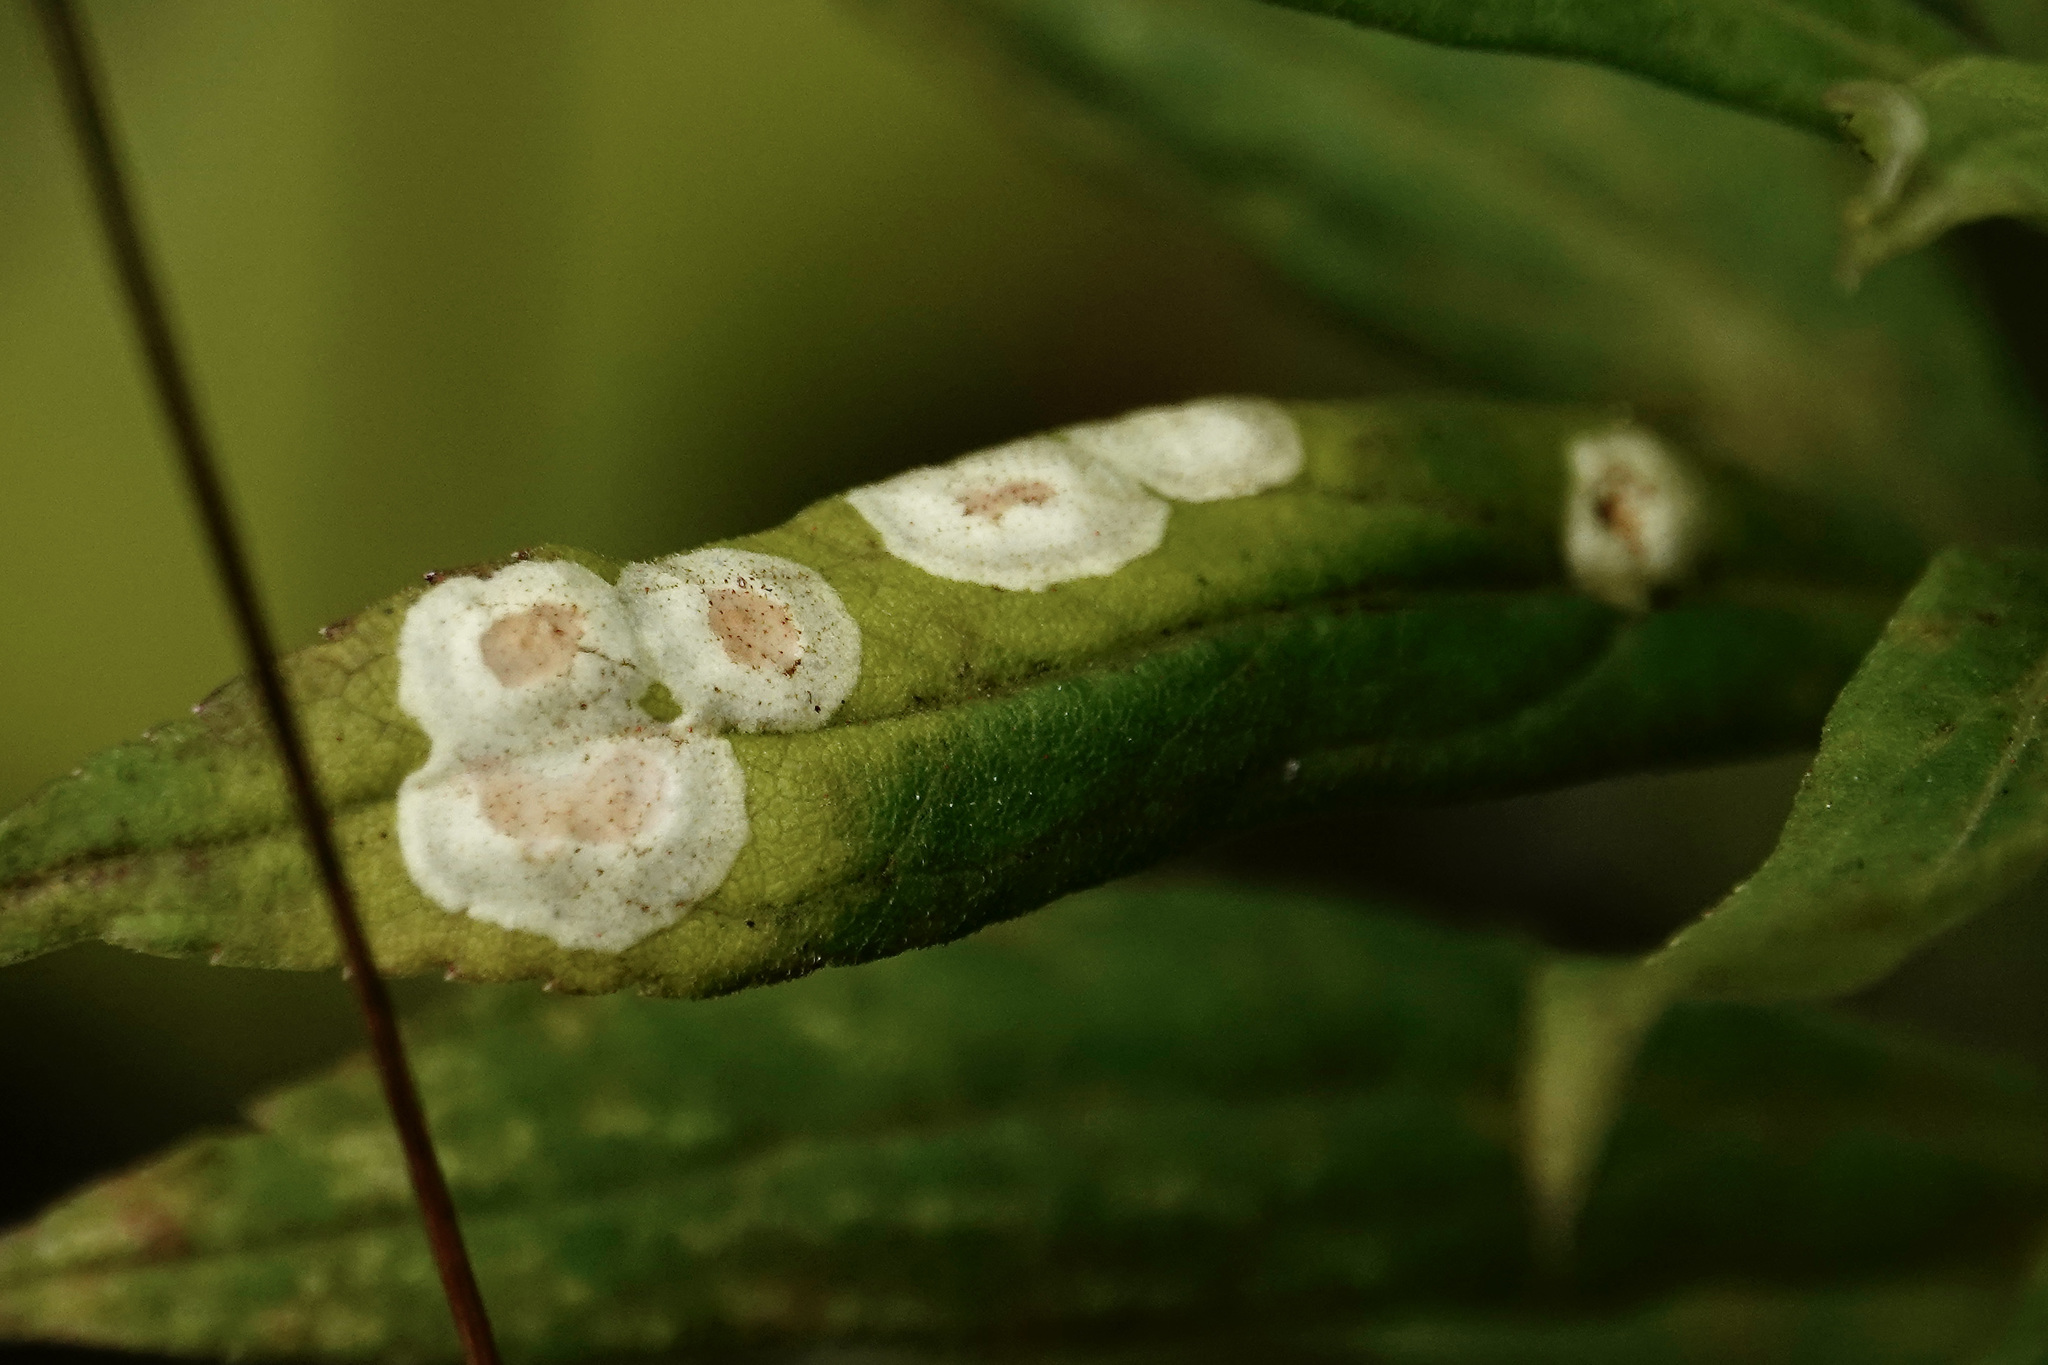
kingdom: Animalia
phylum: Arthropoda
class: Insecta
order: Diptera
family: Cecidomyiidae
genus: Asteromyia
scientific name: Asteromyia carbonifera
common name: Carbonifera goldenrod gall midge
